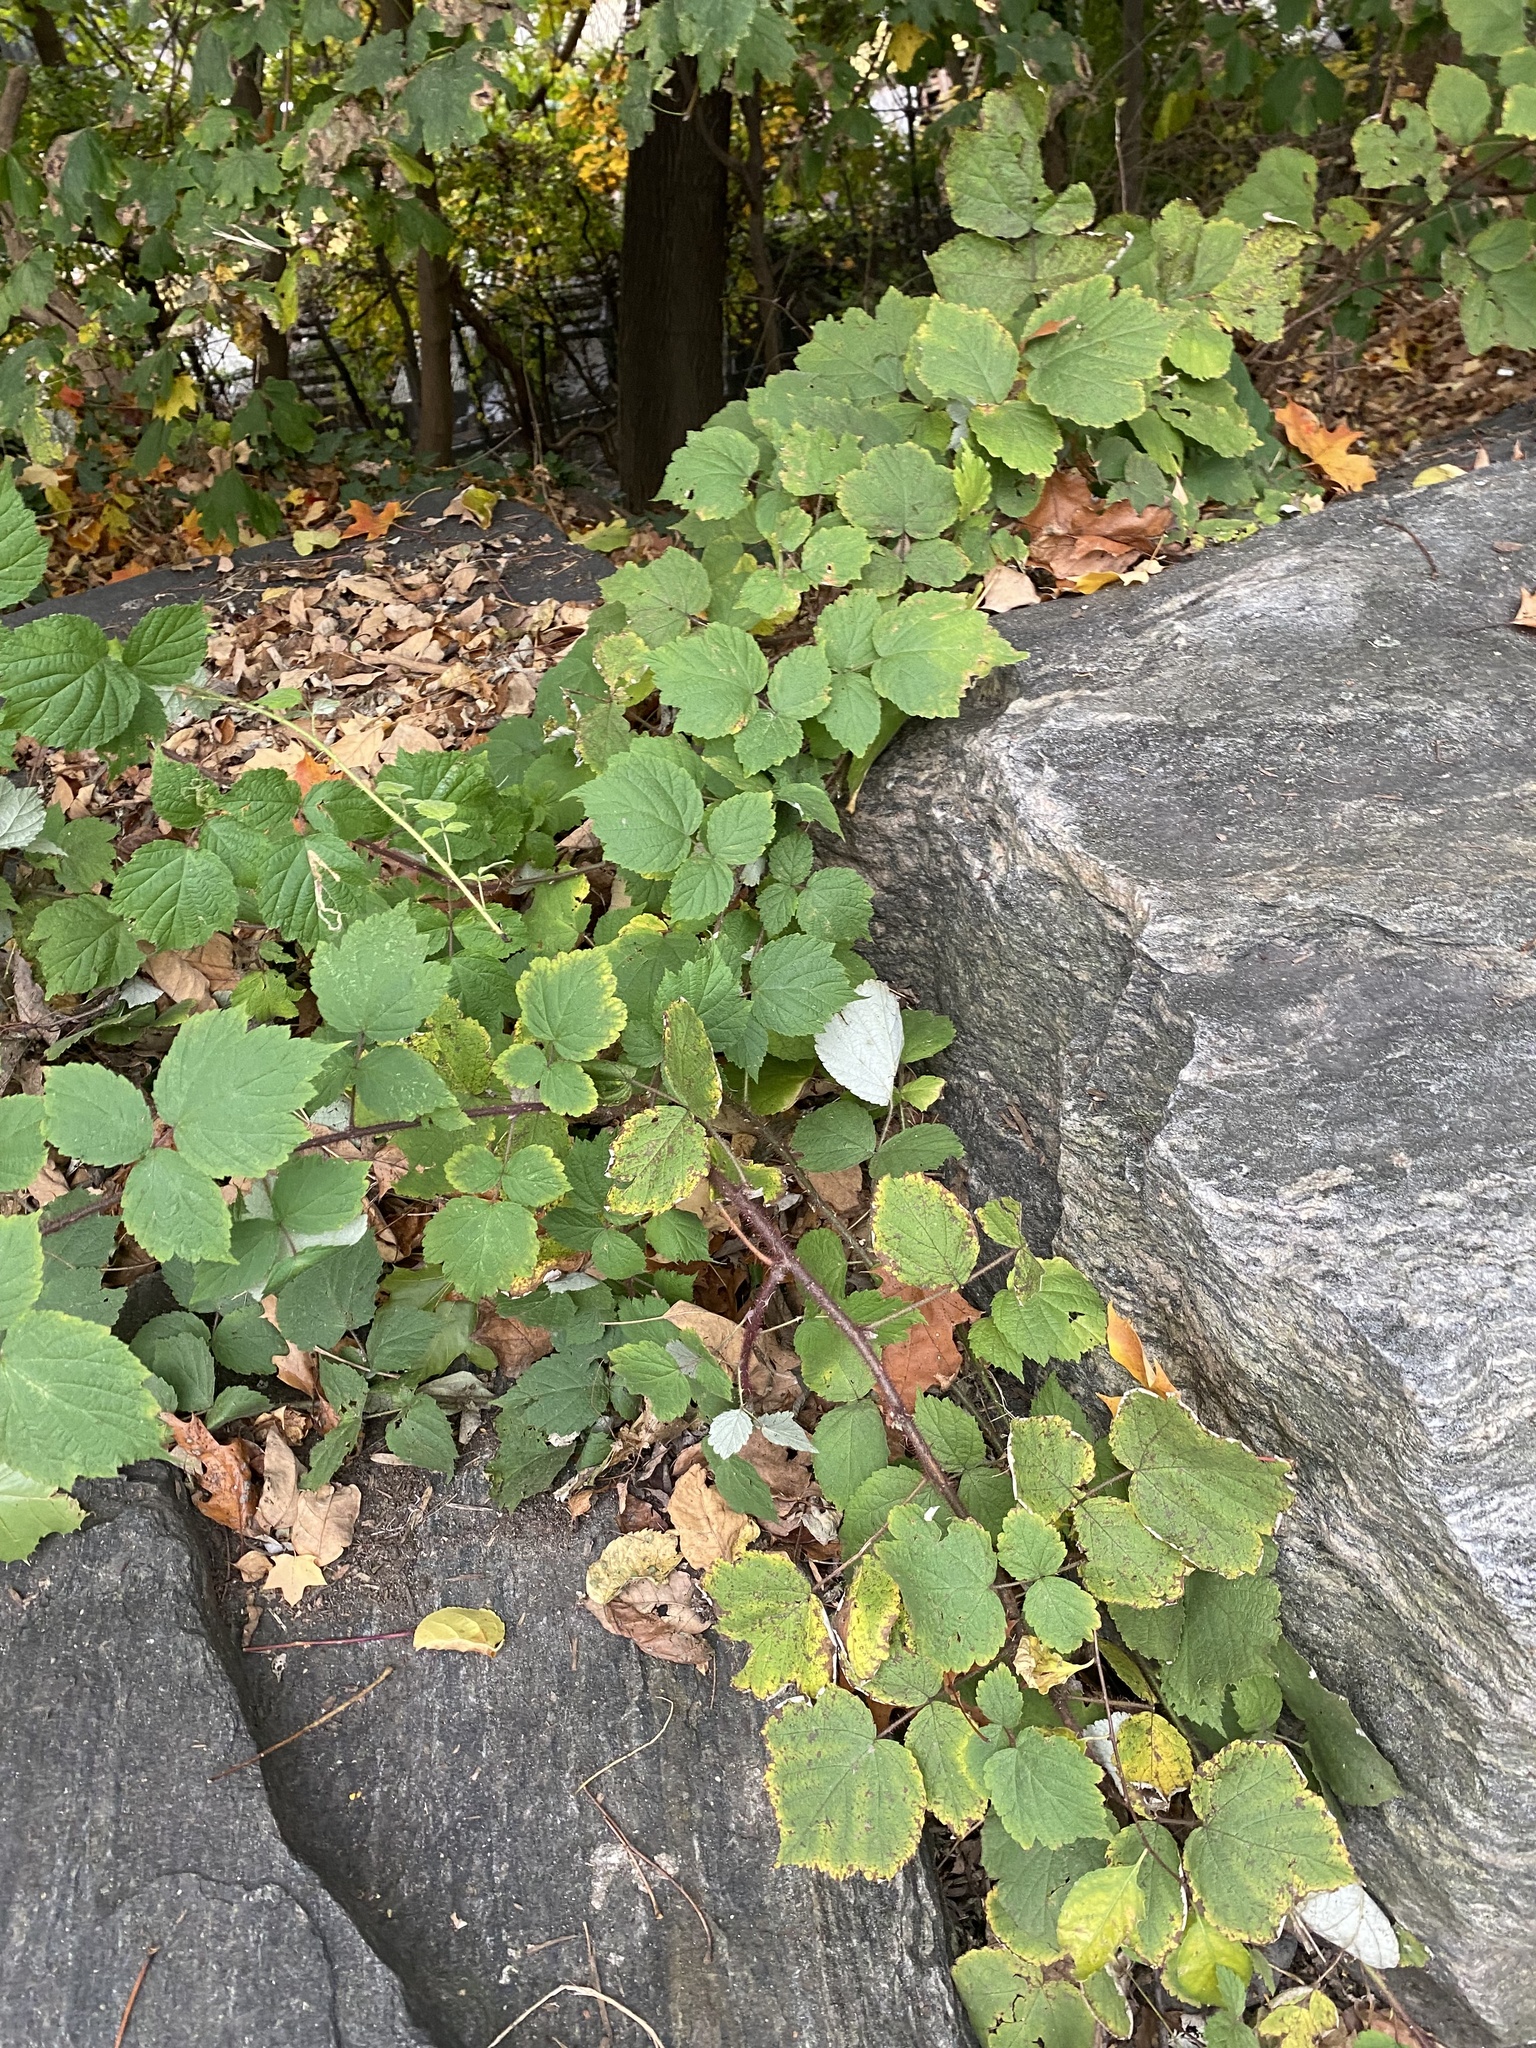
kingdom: Plantae
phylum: Tracheophyta
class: Magnoliopsida
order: Rosales
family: Rosaceae
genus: Rubus
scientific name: Rubus phoenicolasius
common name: Japanese wineberry
